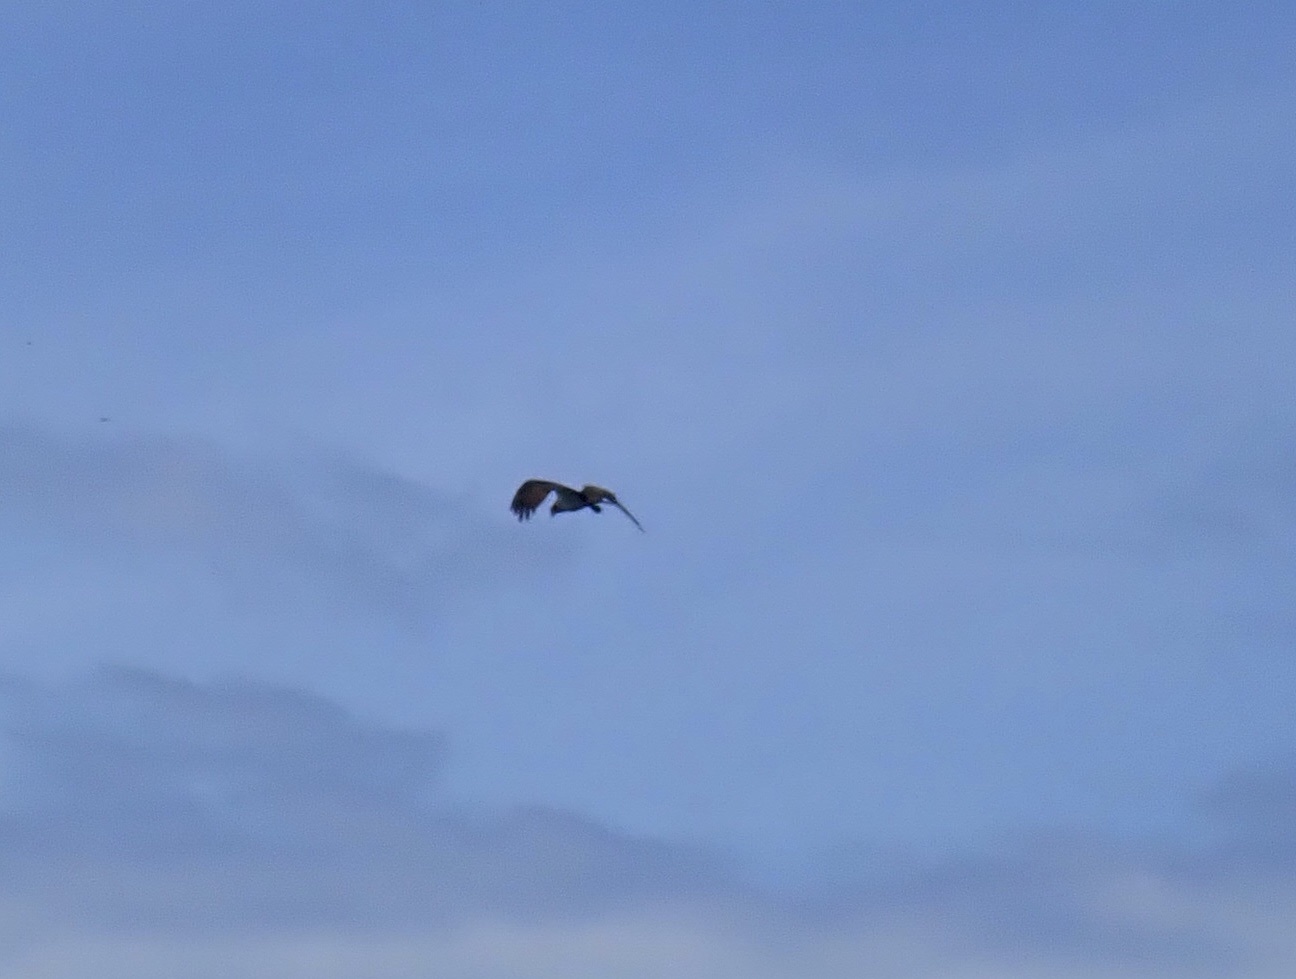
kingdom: Animalia
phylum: Chordata
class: Aves
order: Accipitriformes
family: Pandionidae
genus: Pandion
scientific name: Pandion haliaetus
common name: Osprey
